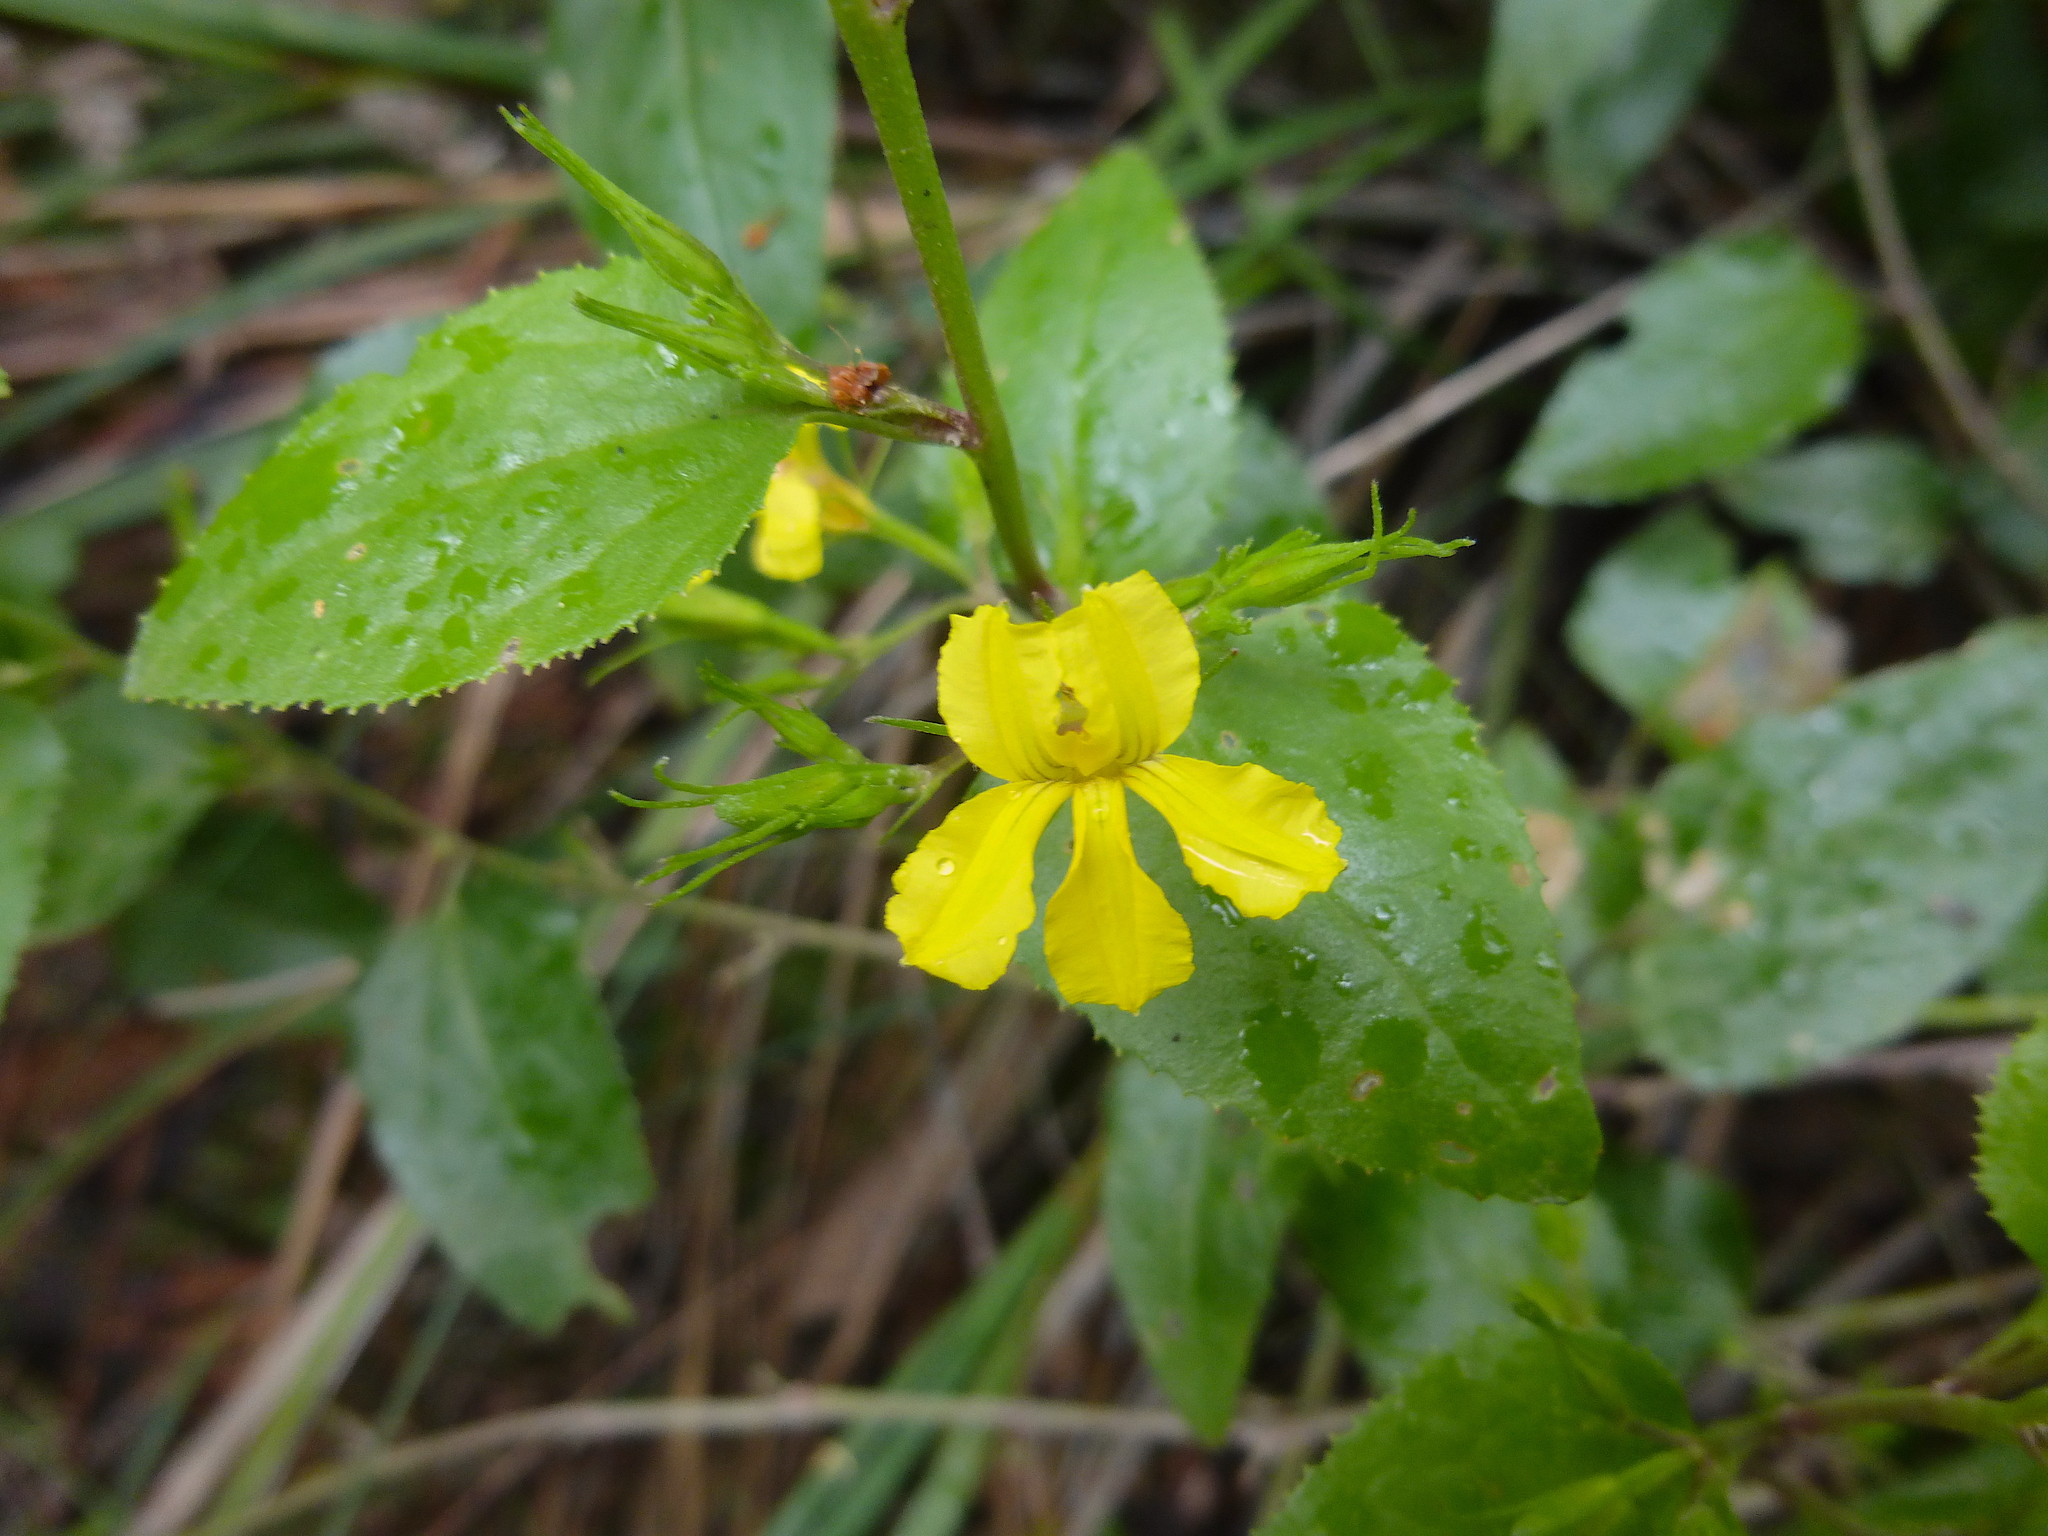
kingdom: Plantae
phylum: Tracheophyta
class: Magnoliopsida
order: Asterales
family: Goodeniaceae
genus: Goodenia
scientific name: Goodenia ovata
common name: Hop goodenia
